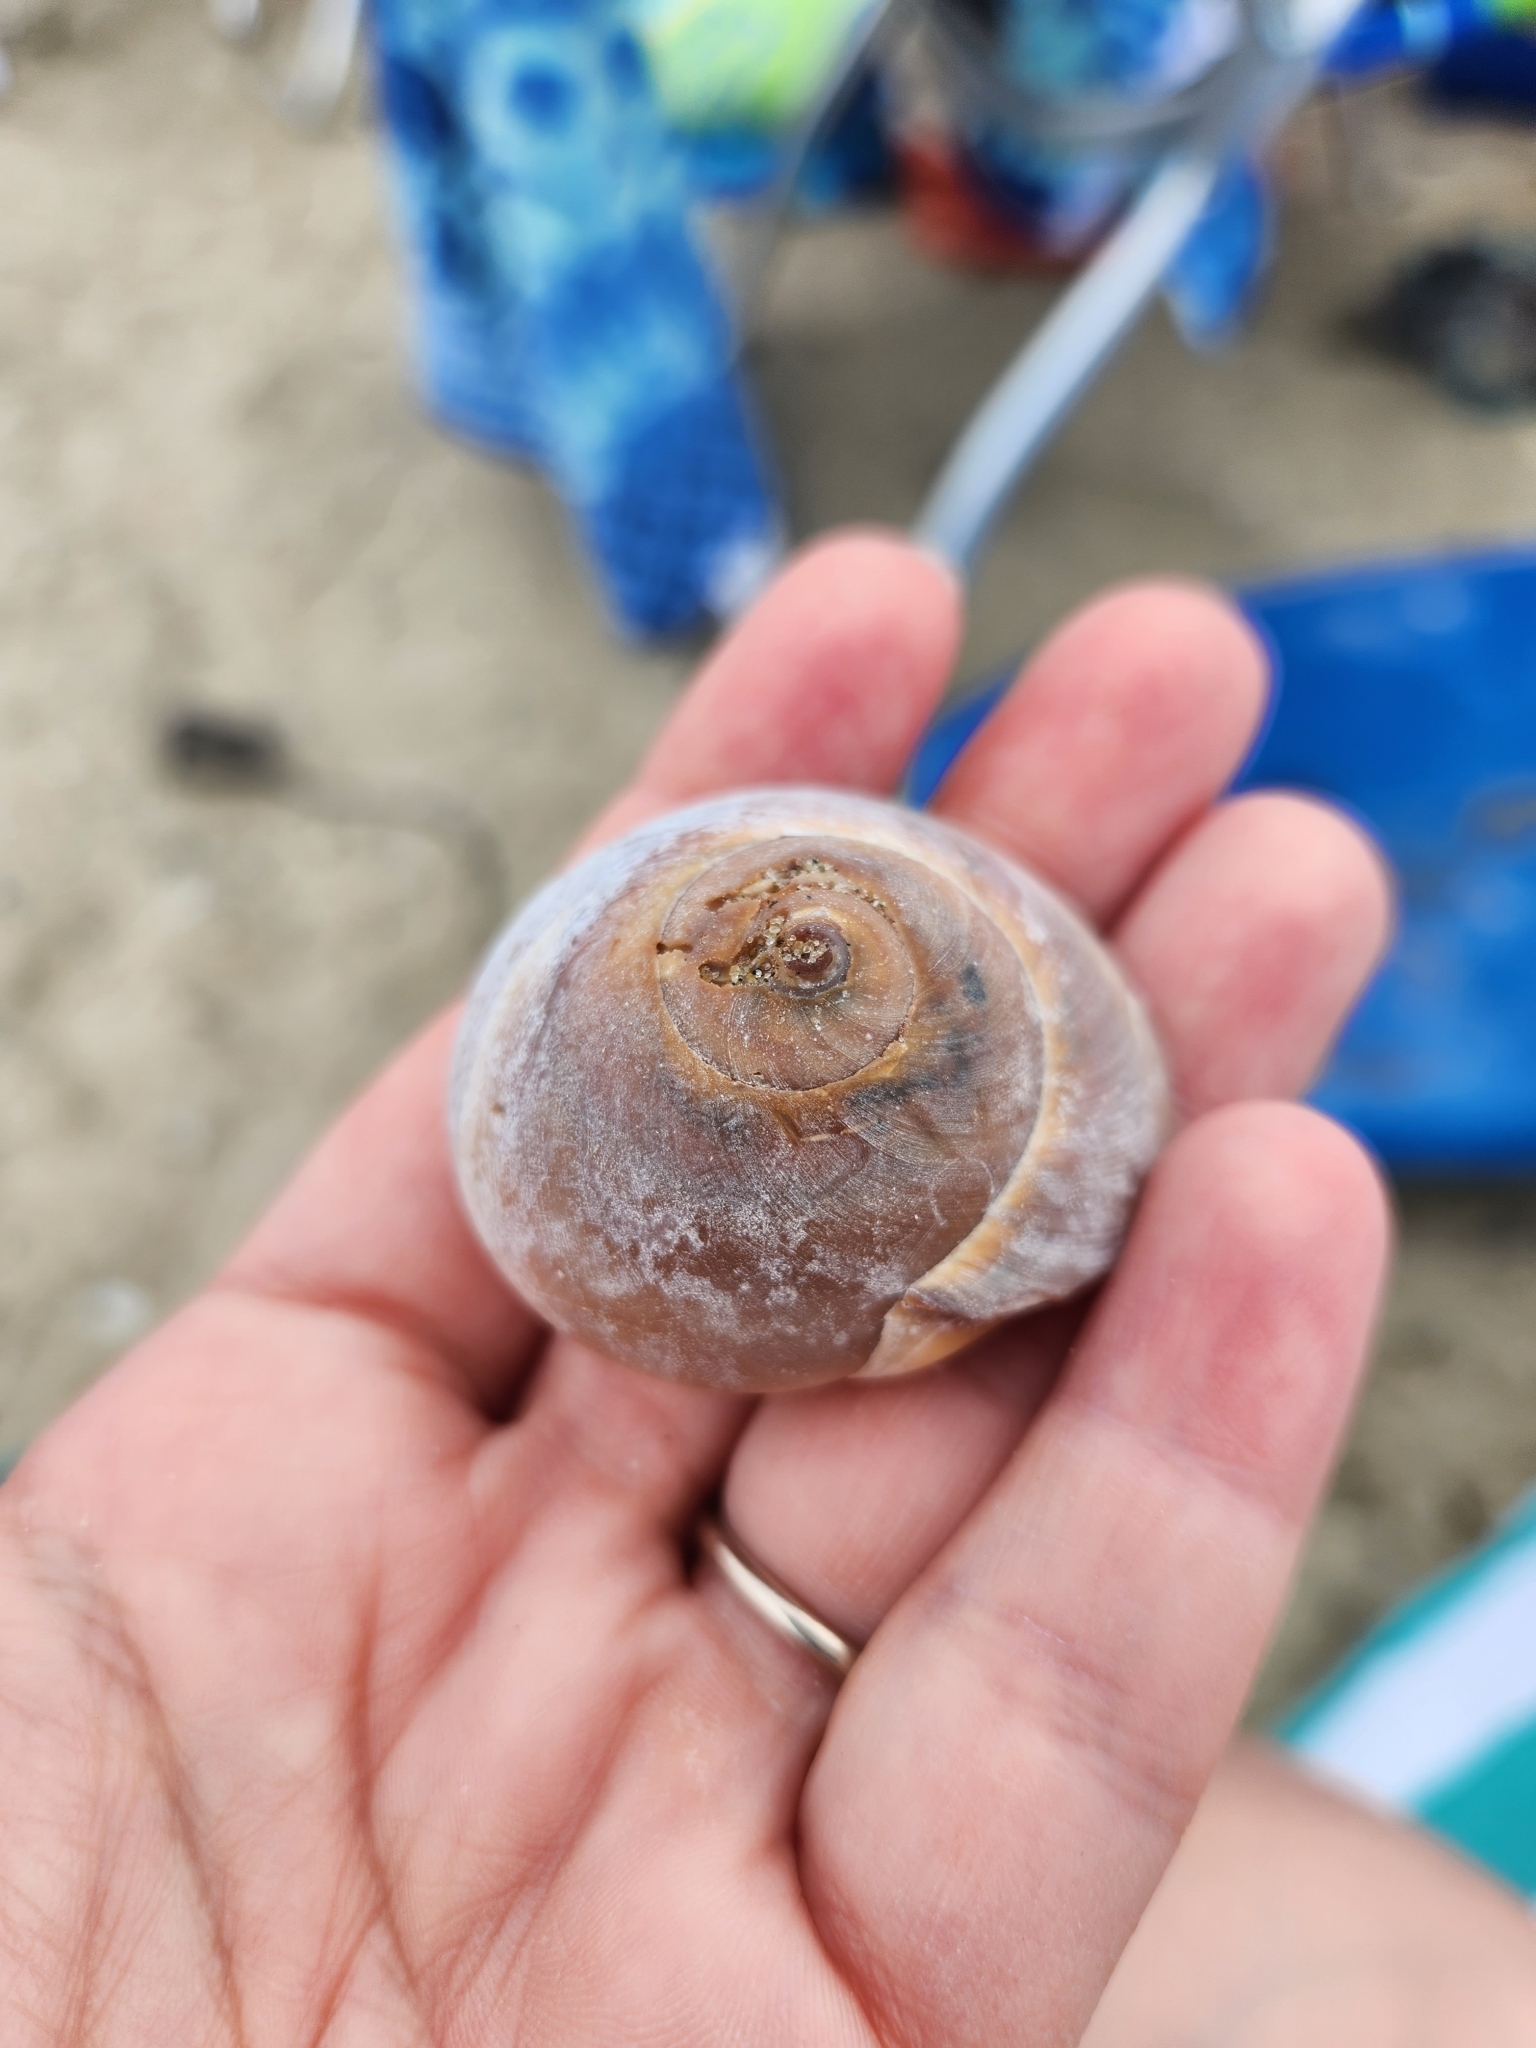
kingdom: Animalia
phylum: Mollusca
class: Gastropoda
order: Littorinimorpha
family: Naticidae
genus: Neverita
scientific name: Neverita duplicata
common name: Lobed moonsnail
